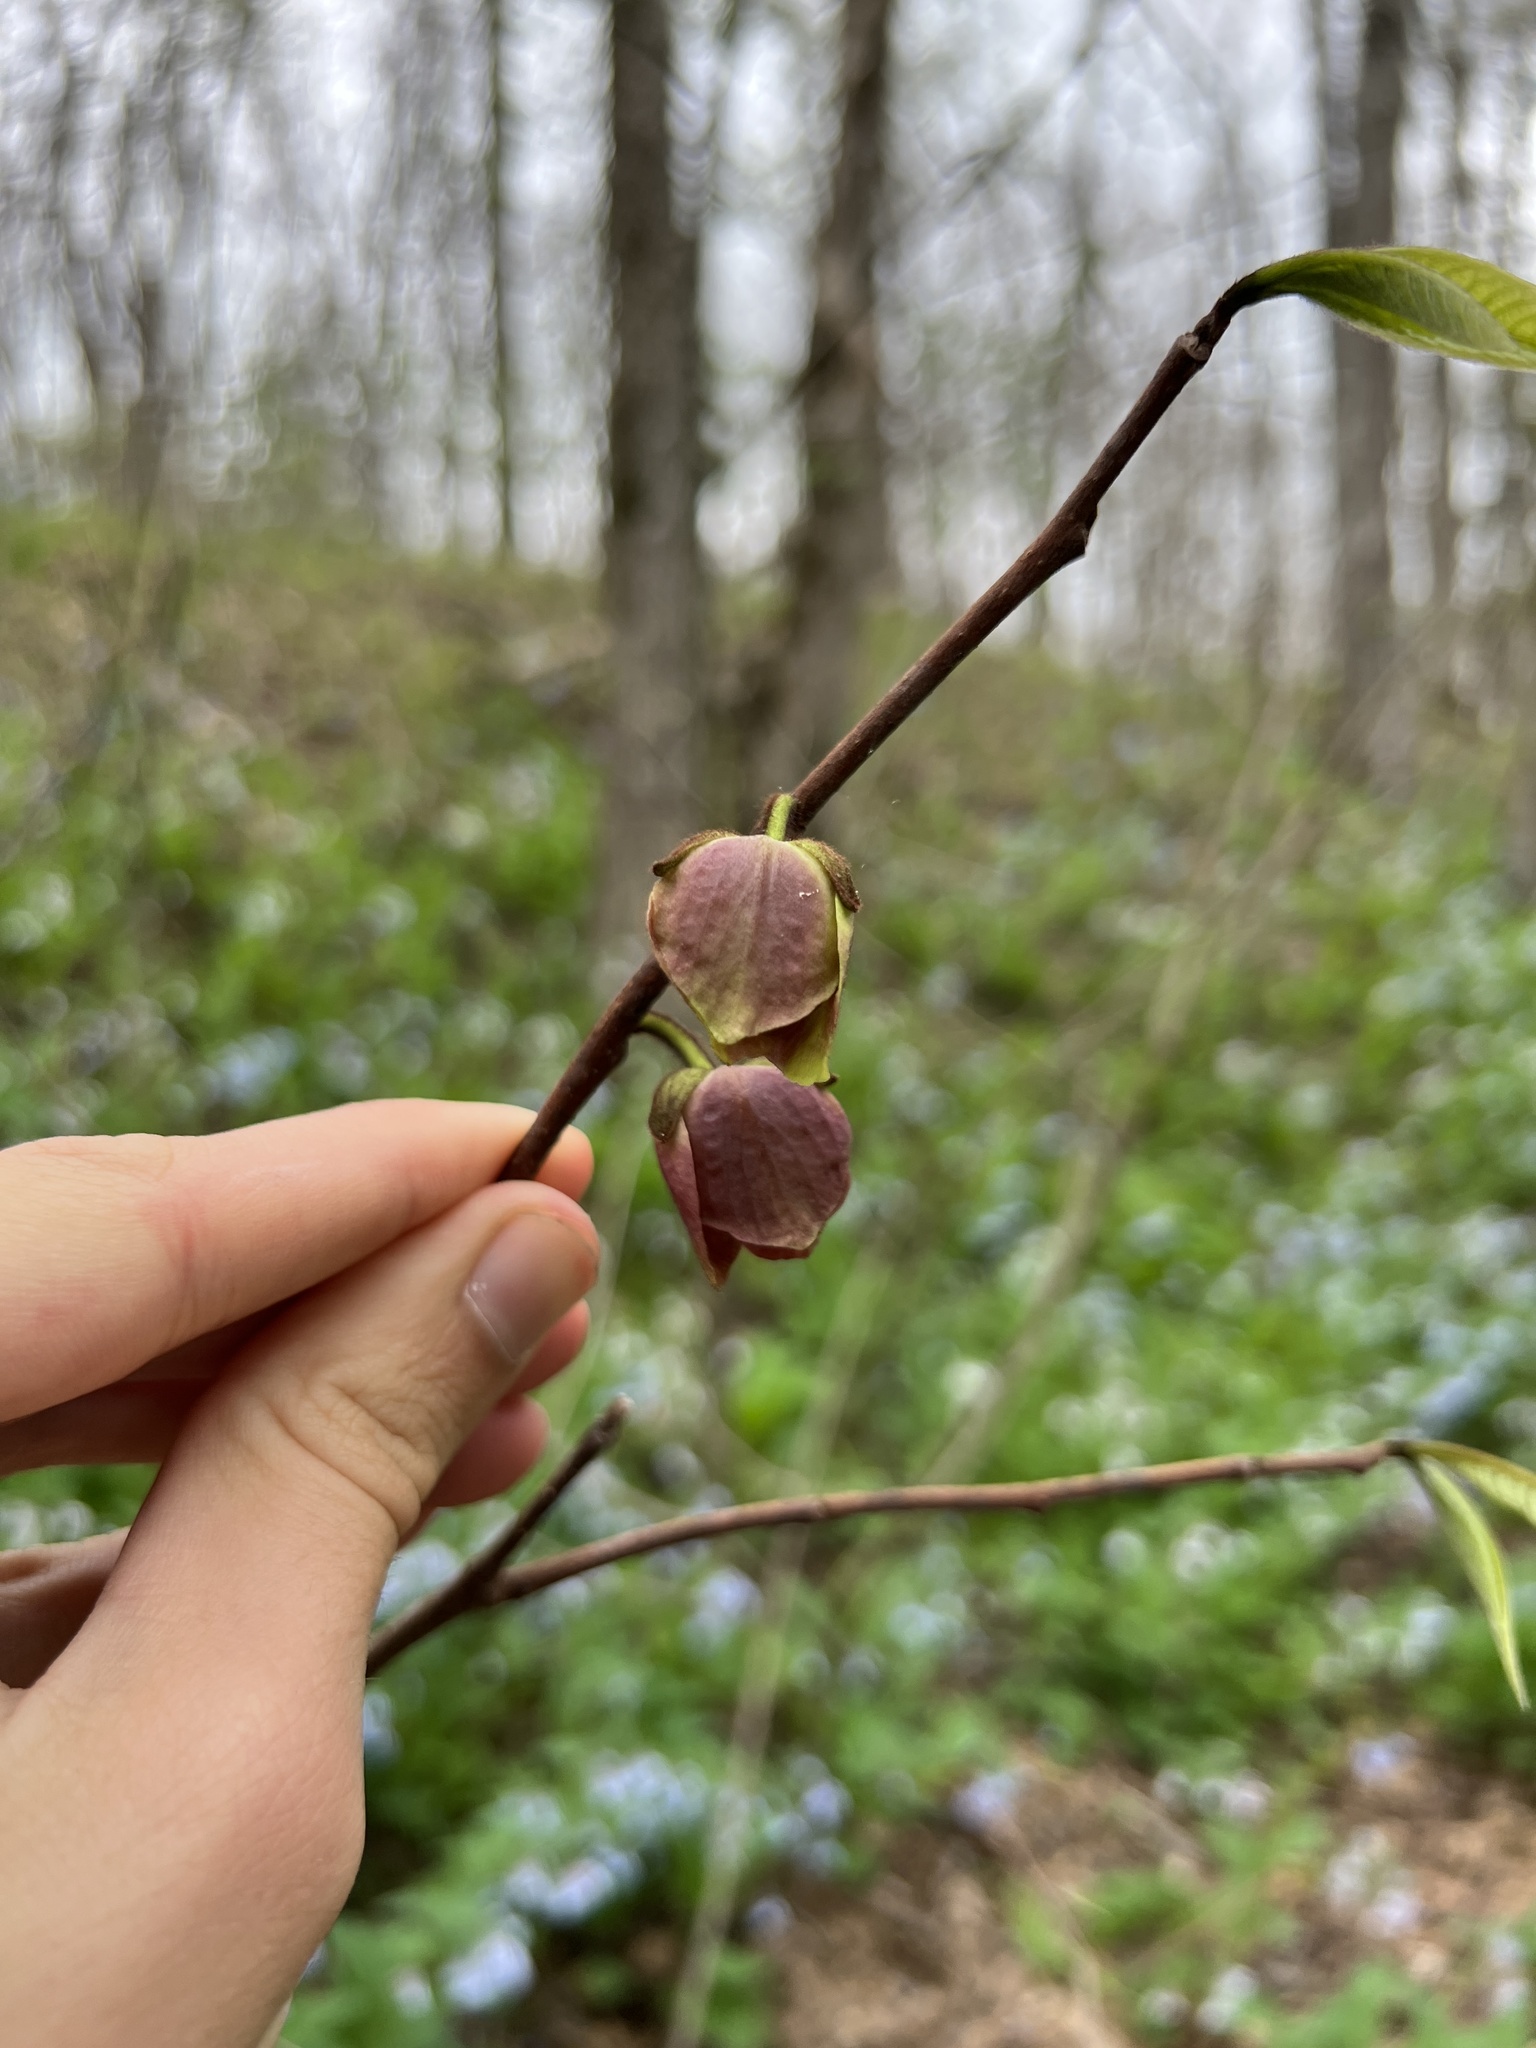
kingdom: Plantae
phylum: Tracheophyta
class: Magnoliopsida
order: Magnoliales
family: Annonaceae
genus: Asimina
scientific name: Asimina triloba
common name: Dog-banana
